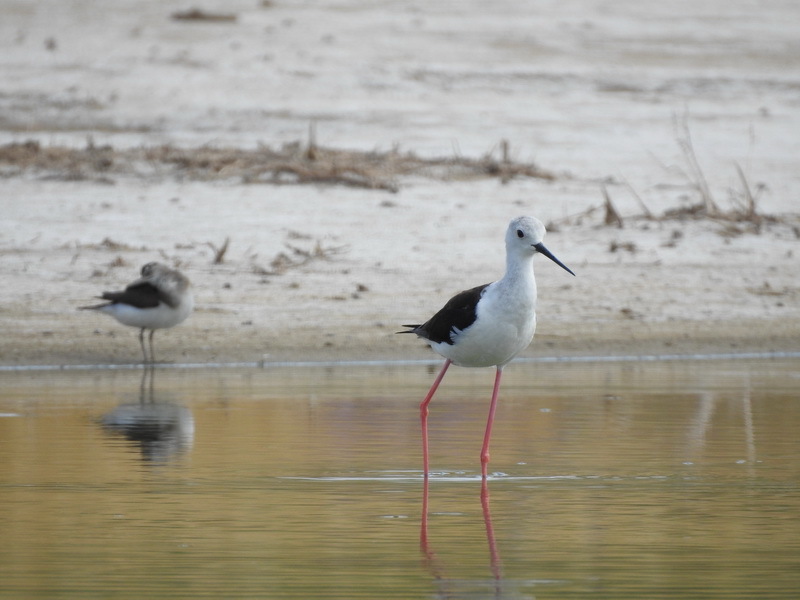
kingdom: Animalia
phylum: Chordata
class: Aves
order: Charadriiformes
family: Recurvirostridae
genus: Himantopus
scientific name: Himantopus himantopus
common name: Black-winged stilt
